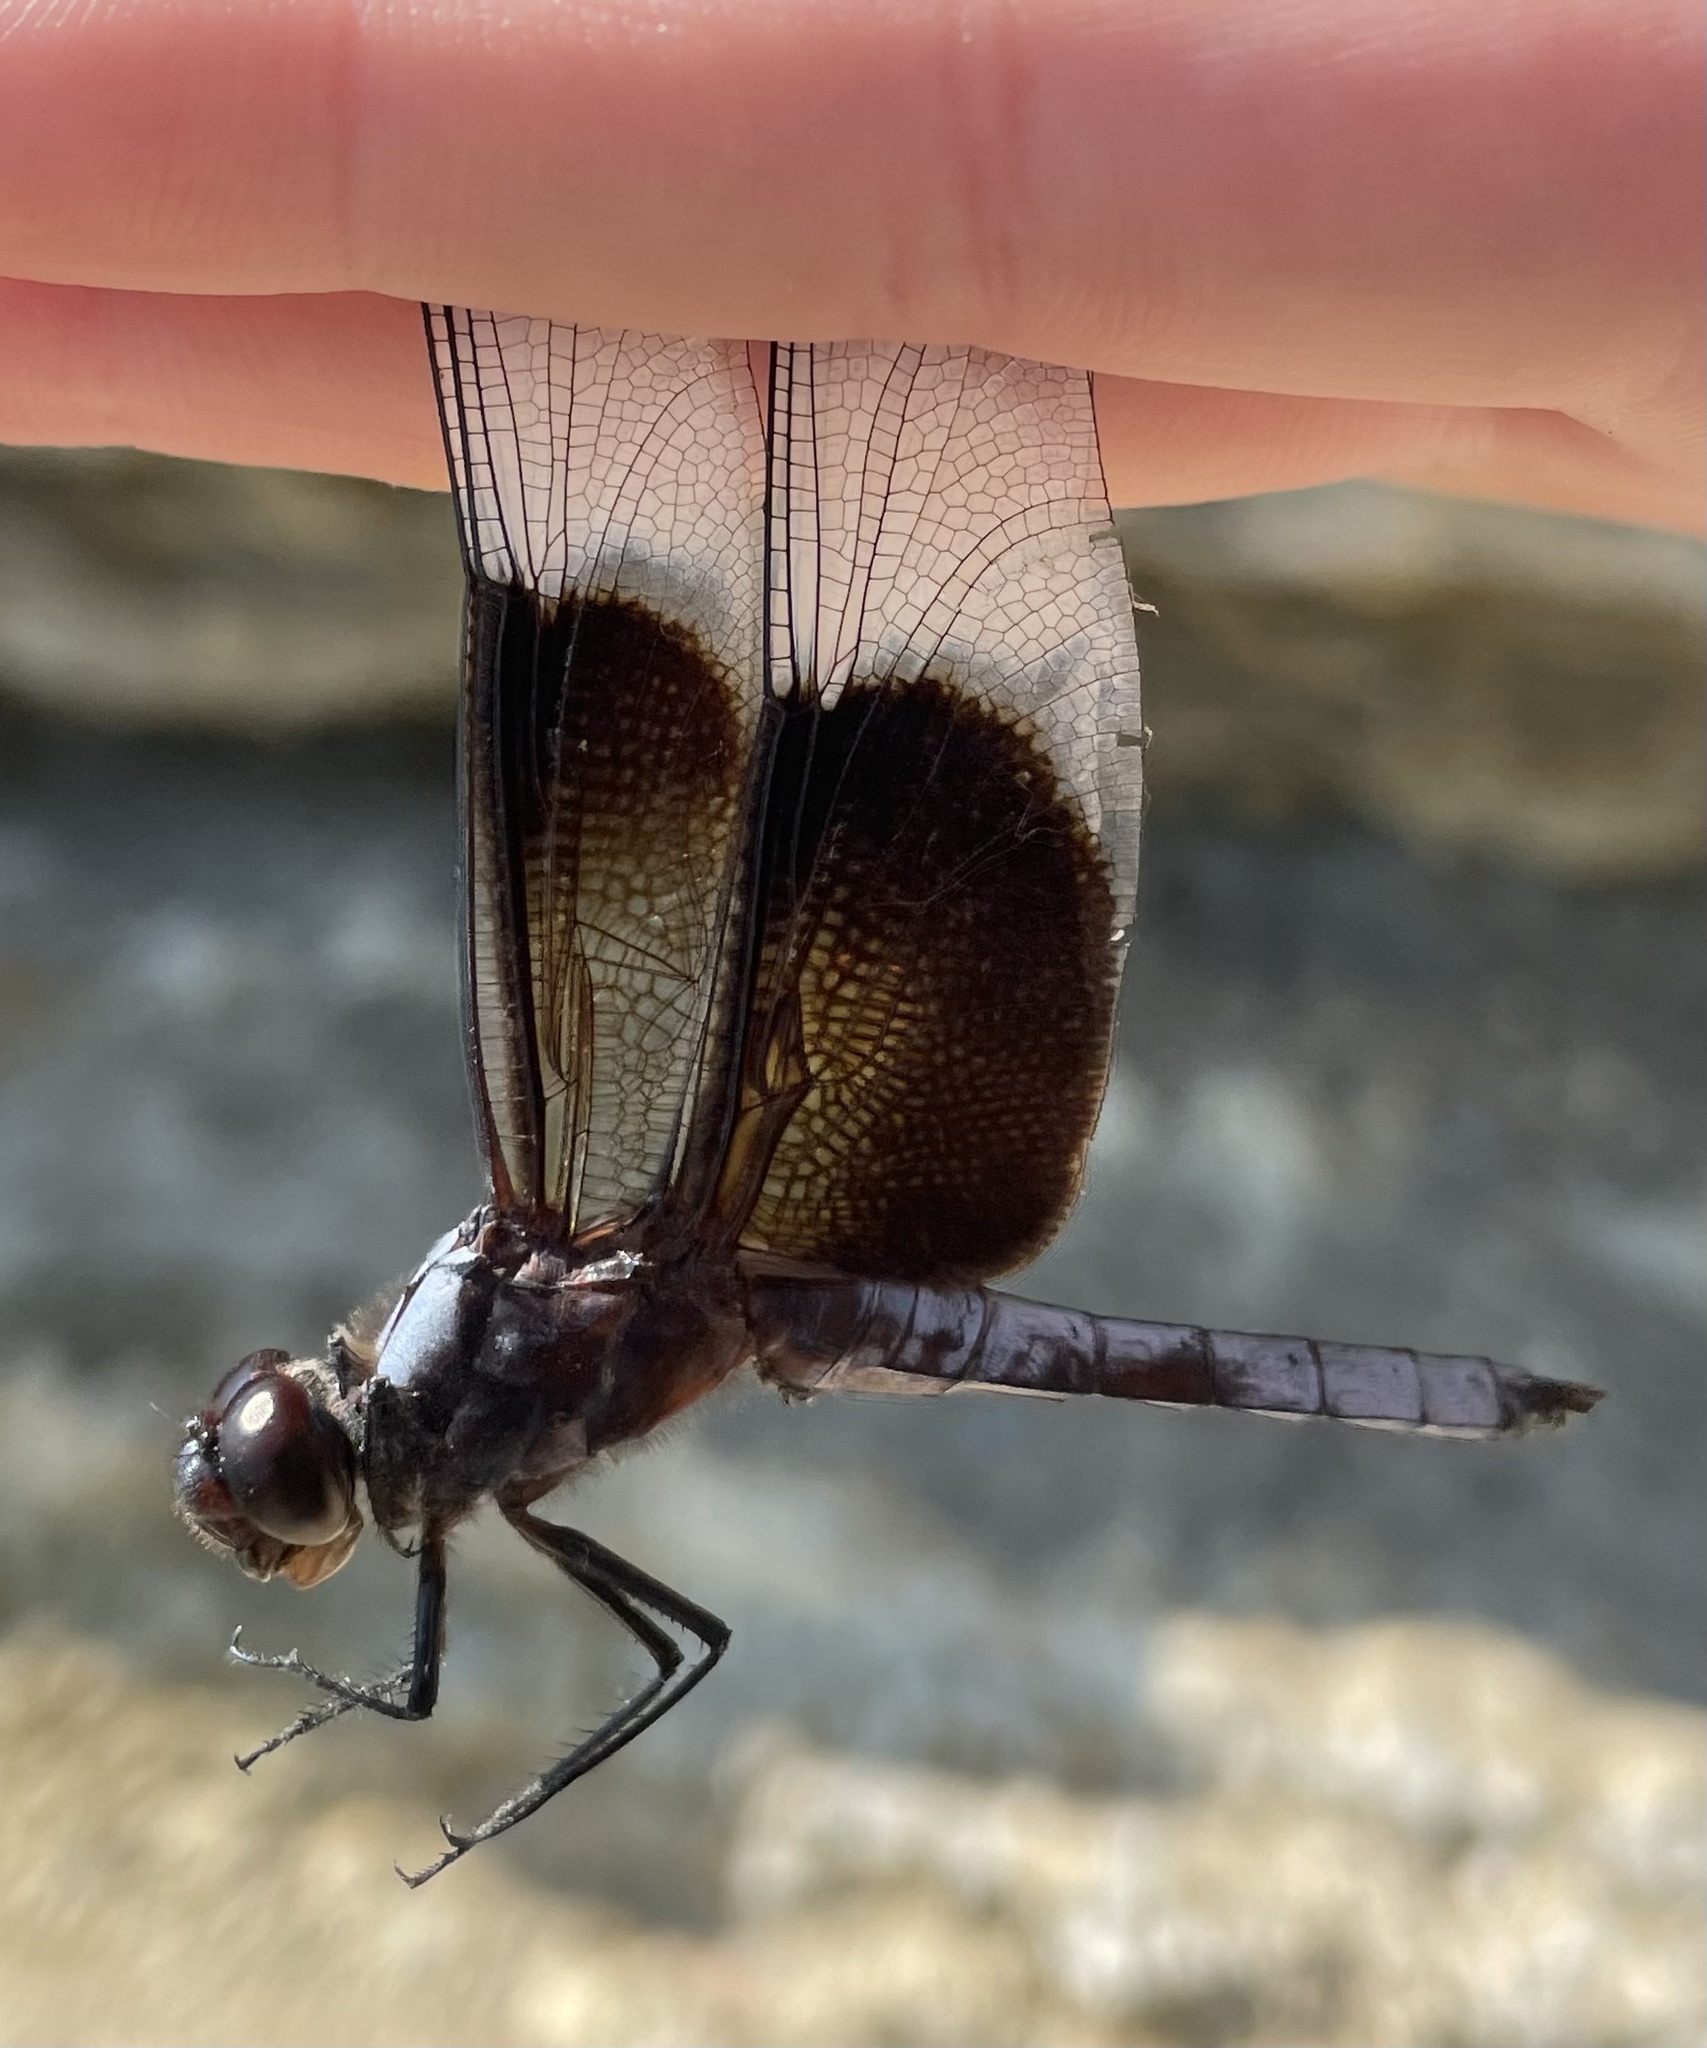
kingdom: Animalia
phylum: Arthropoda
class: Insecta
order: Odonata
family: Libellulidae
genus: Libellula
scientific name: Libellula luctuosa
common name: Widow skimmer
